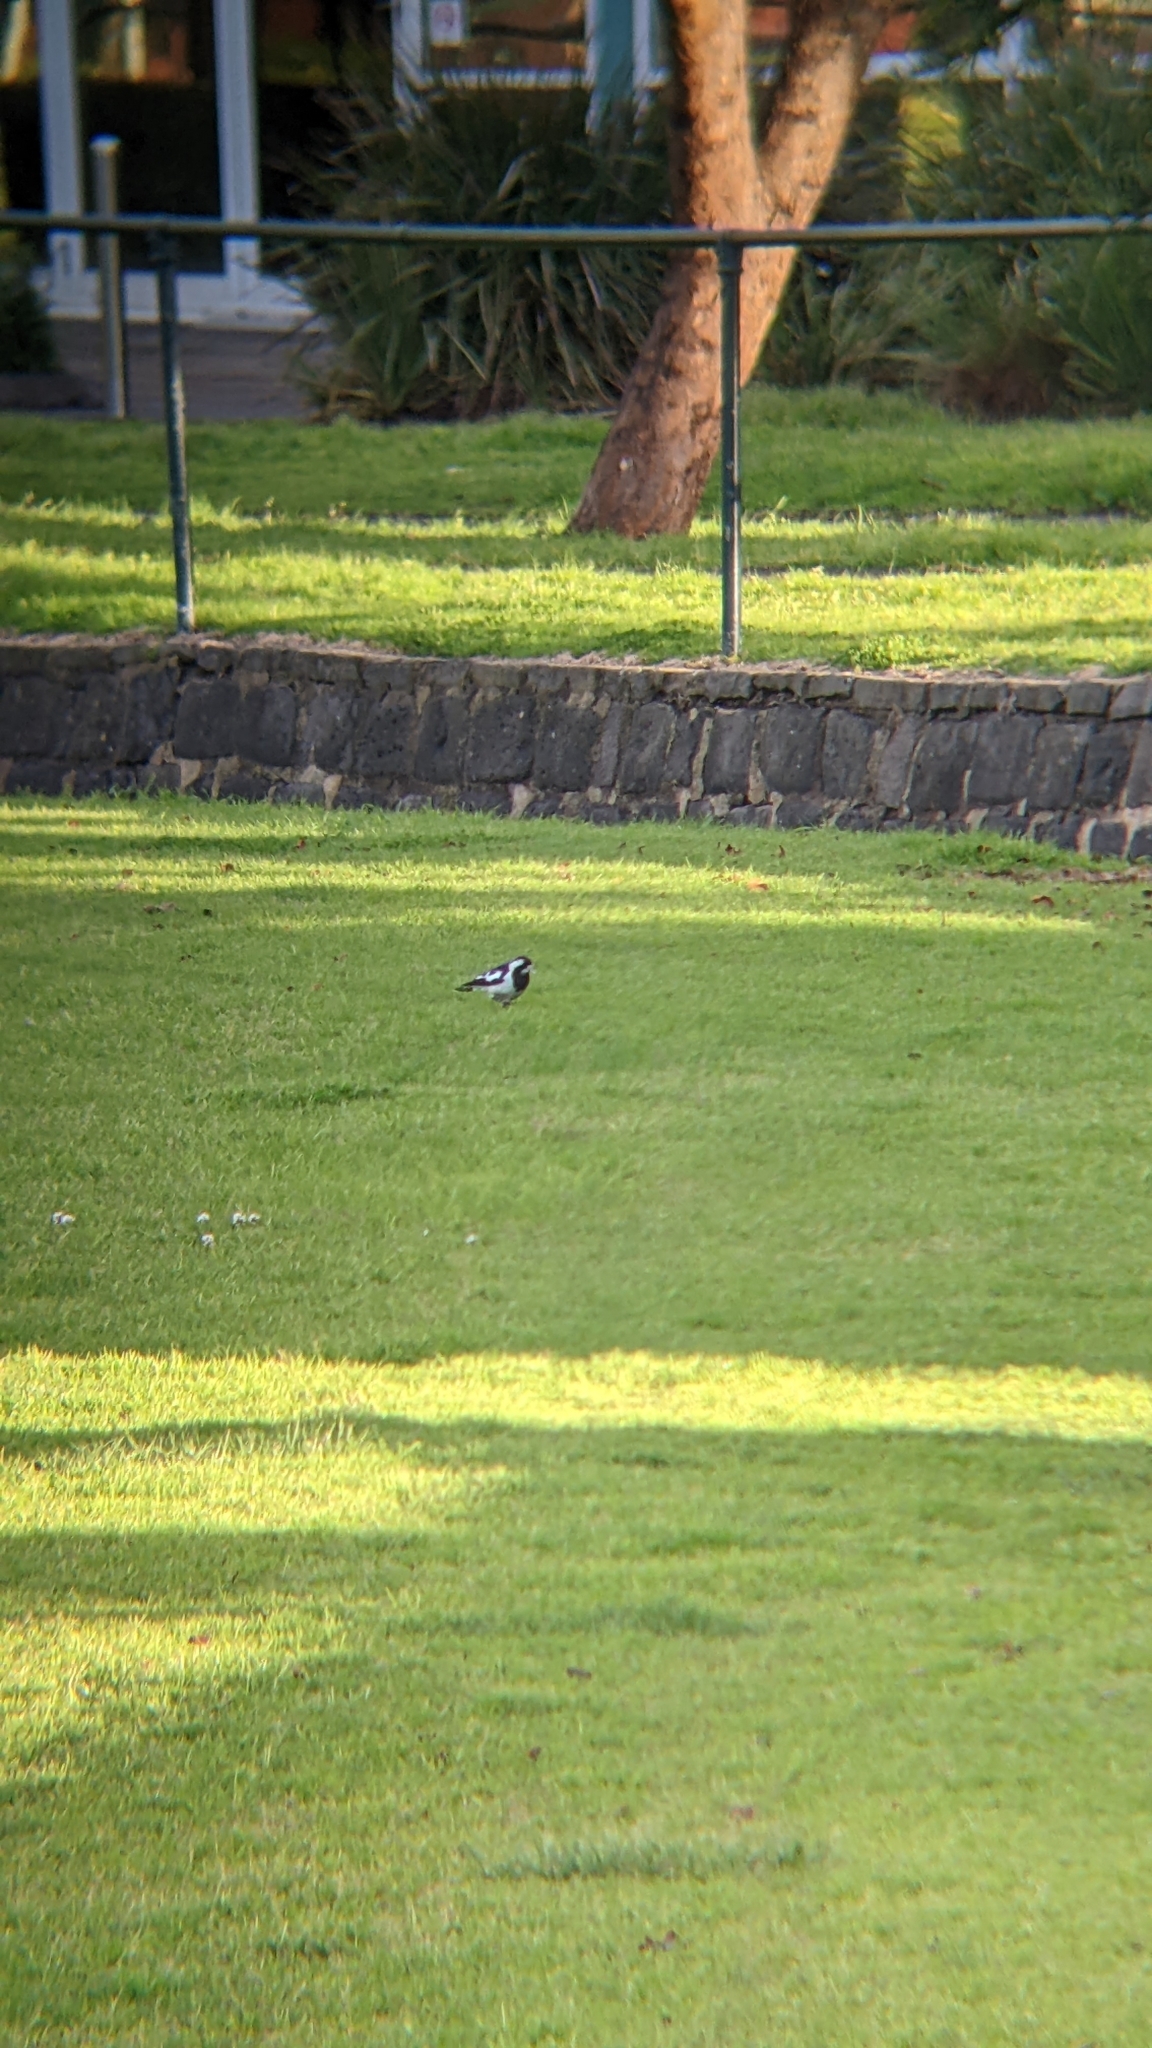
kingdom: Animalia
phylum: Chordata
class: Aves
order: Passeriformes
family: Monarchidae
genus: Grallina
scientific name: Grallina cyanoleuca
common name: Magpie-lark
